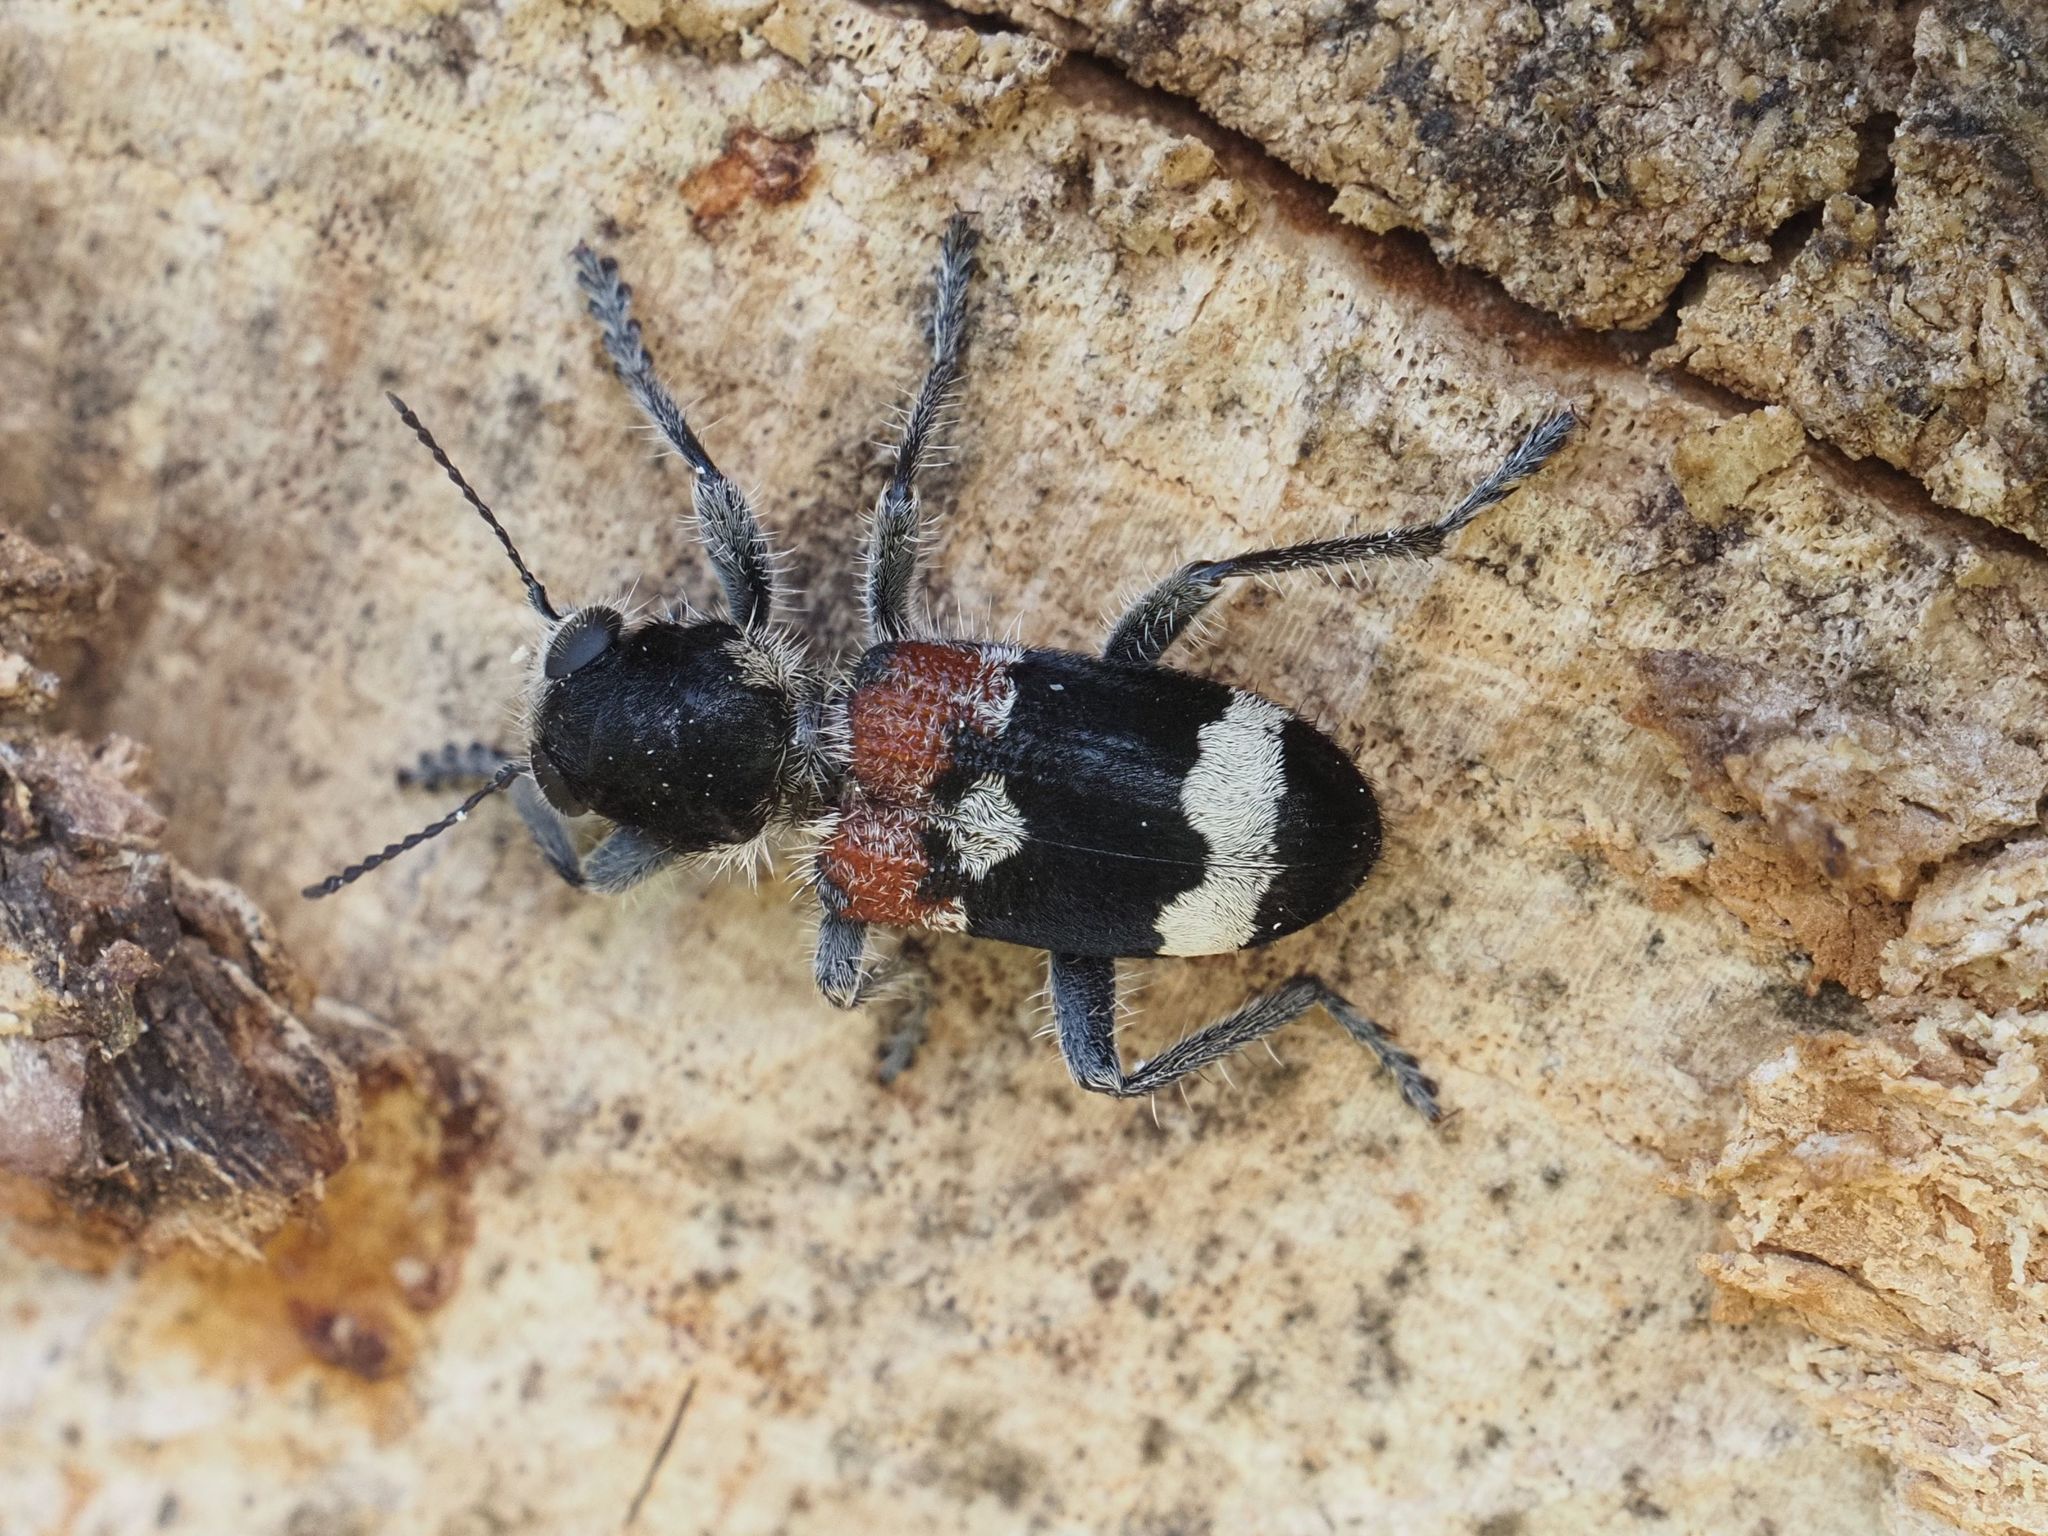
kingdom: Animalia
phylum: Arthropoda
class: Insecta
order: Coleoptera
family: Cleridae
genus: Clerus
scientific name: Clerus mutillarius
